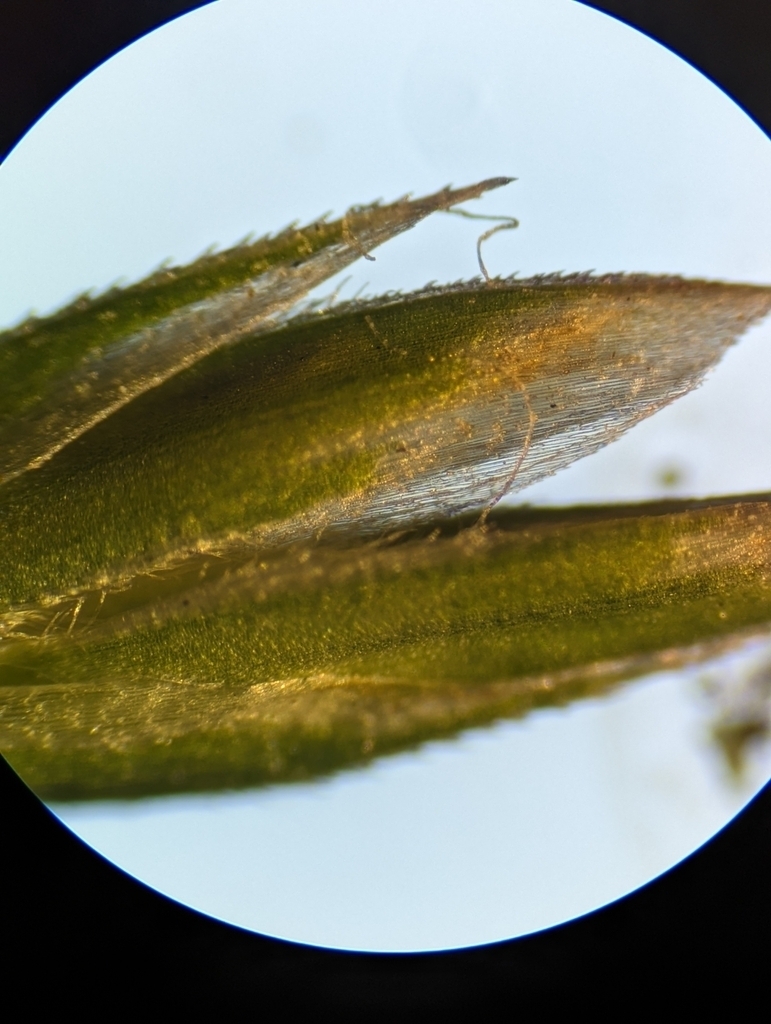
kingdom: Plantae
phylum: Tracheophyta
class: Liliopsida
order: Poales
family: Poaceae
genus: Poa
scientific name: Poa nemoralis
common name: Wood bluegrass
